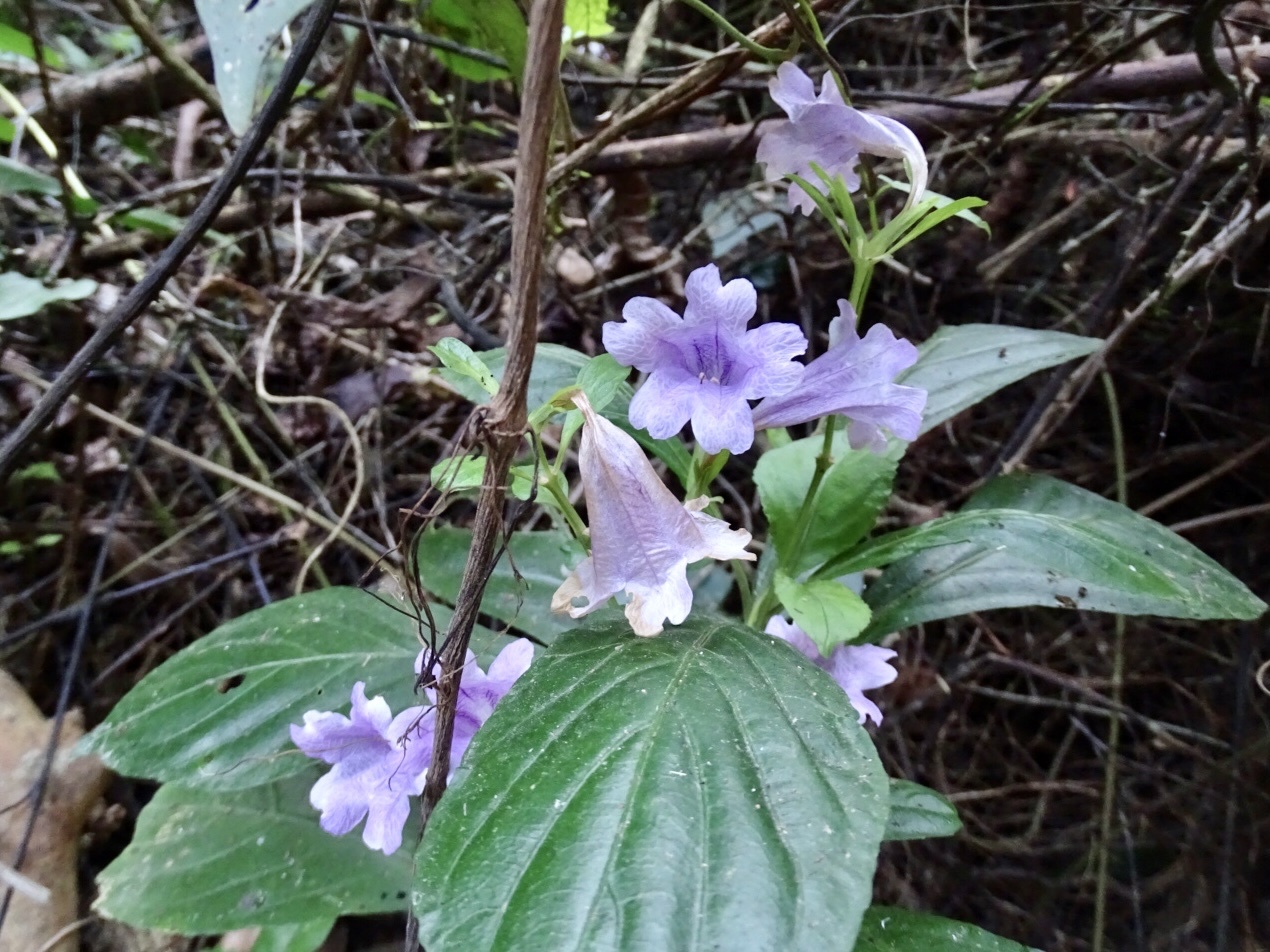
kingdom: Plantae
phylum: Tracheophyta
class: Magnoliopsida
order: Lamiales
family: Acanthaceae
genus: Strobilanthes
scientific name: Strobilanthes cusia
